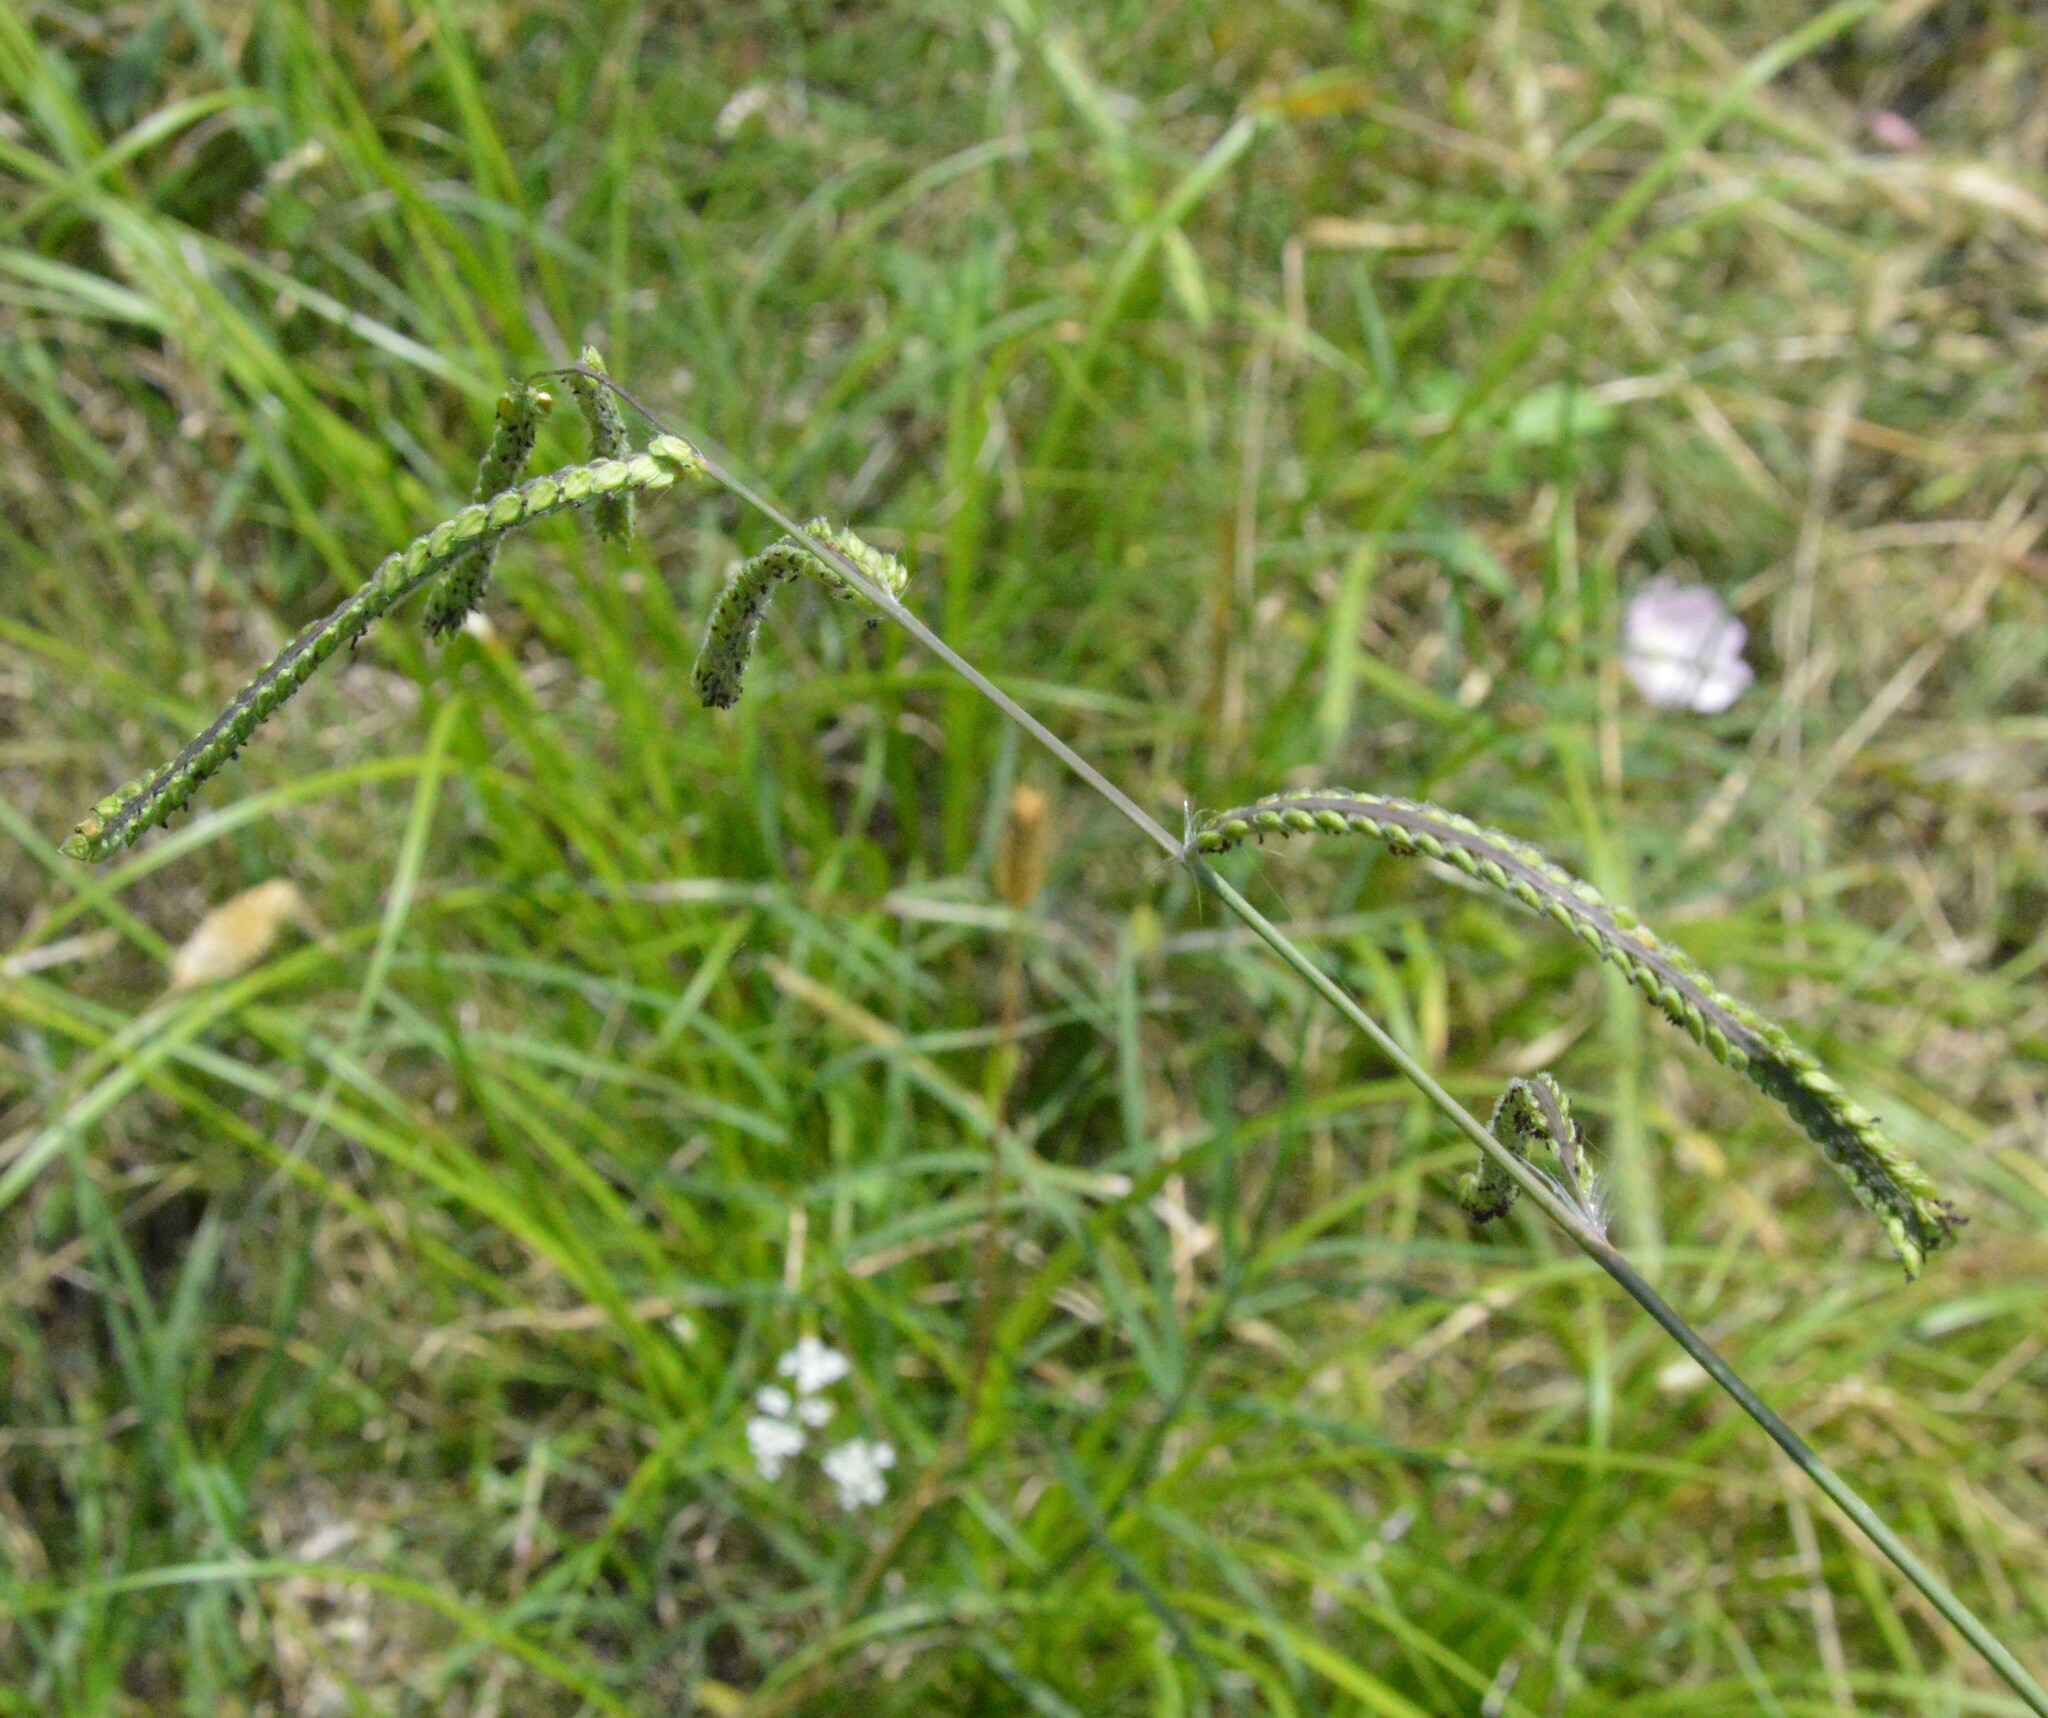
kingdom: Plantae
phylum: Tracheophyta
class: Liliopsida
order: Poales
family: Poaceae
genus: Paspalum
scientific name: Paspalum dilatatum
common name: Dallisgrass
